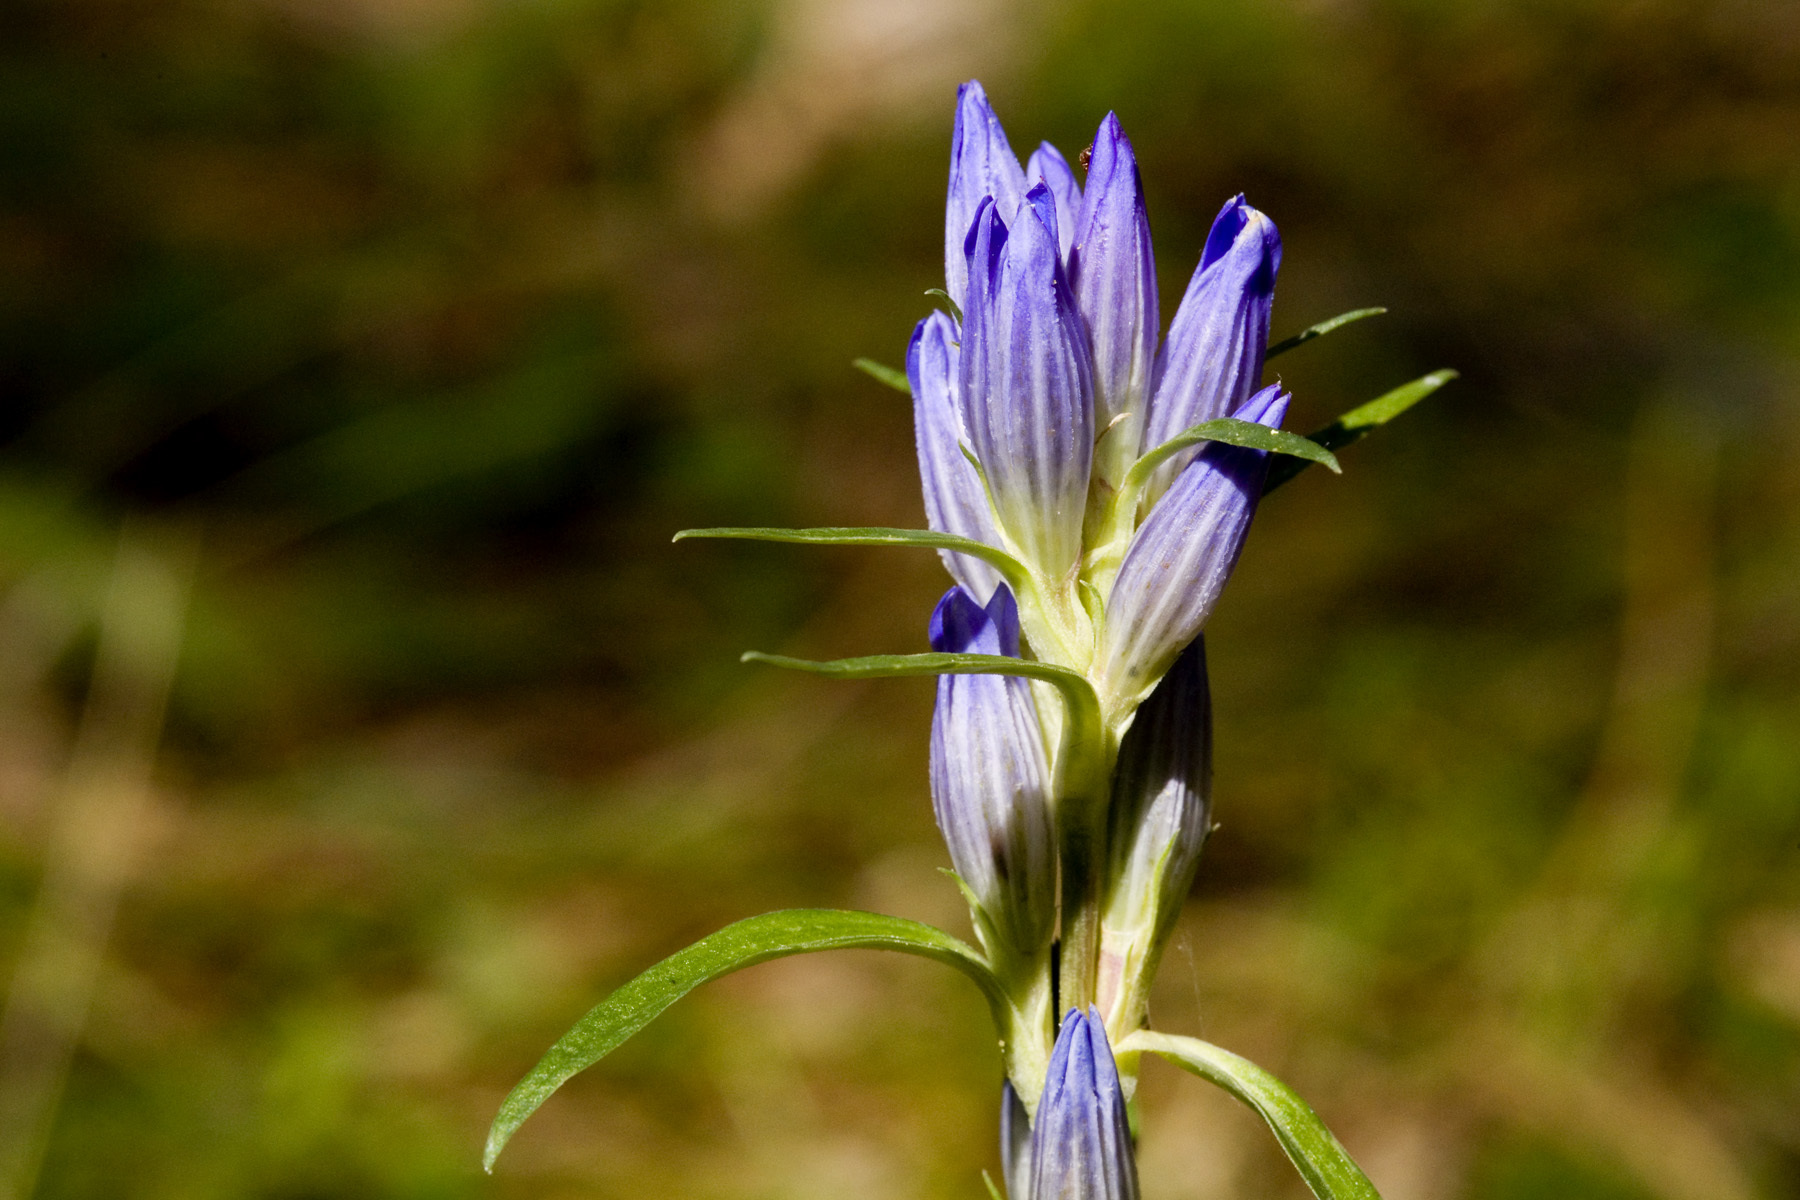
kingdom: Plantae
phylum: Tracheophyta
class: Magnoliopsida
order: Gentianales
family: Gentianaceae
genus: Gentiana
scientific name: Gentiana affinis
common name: Rocky mountain gentian
